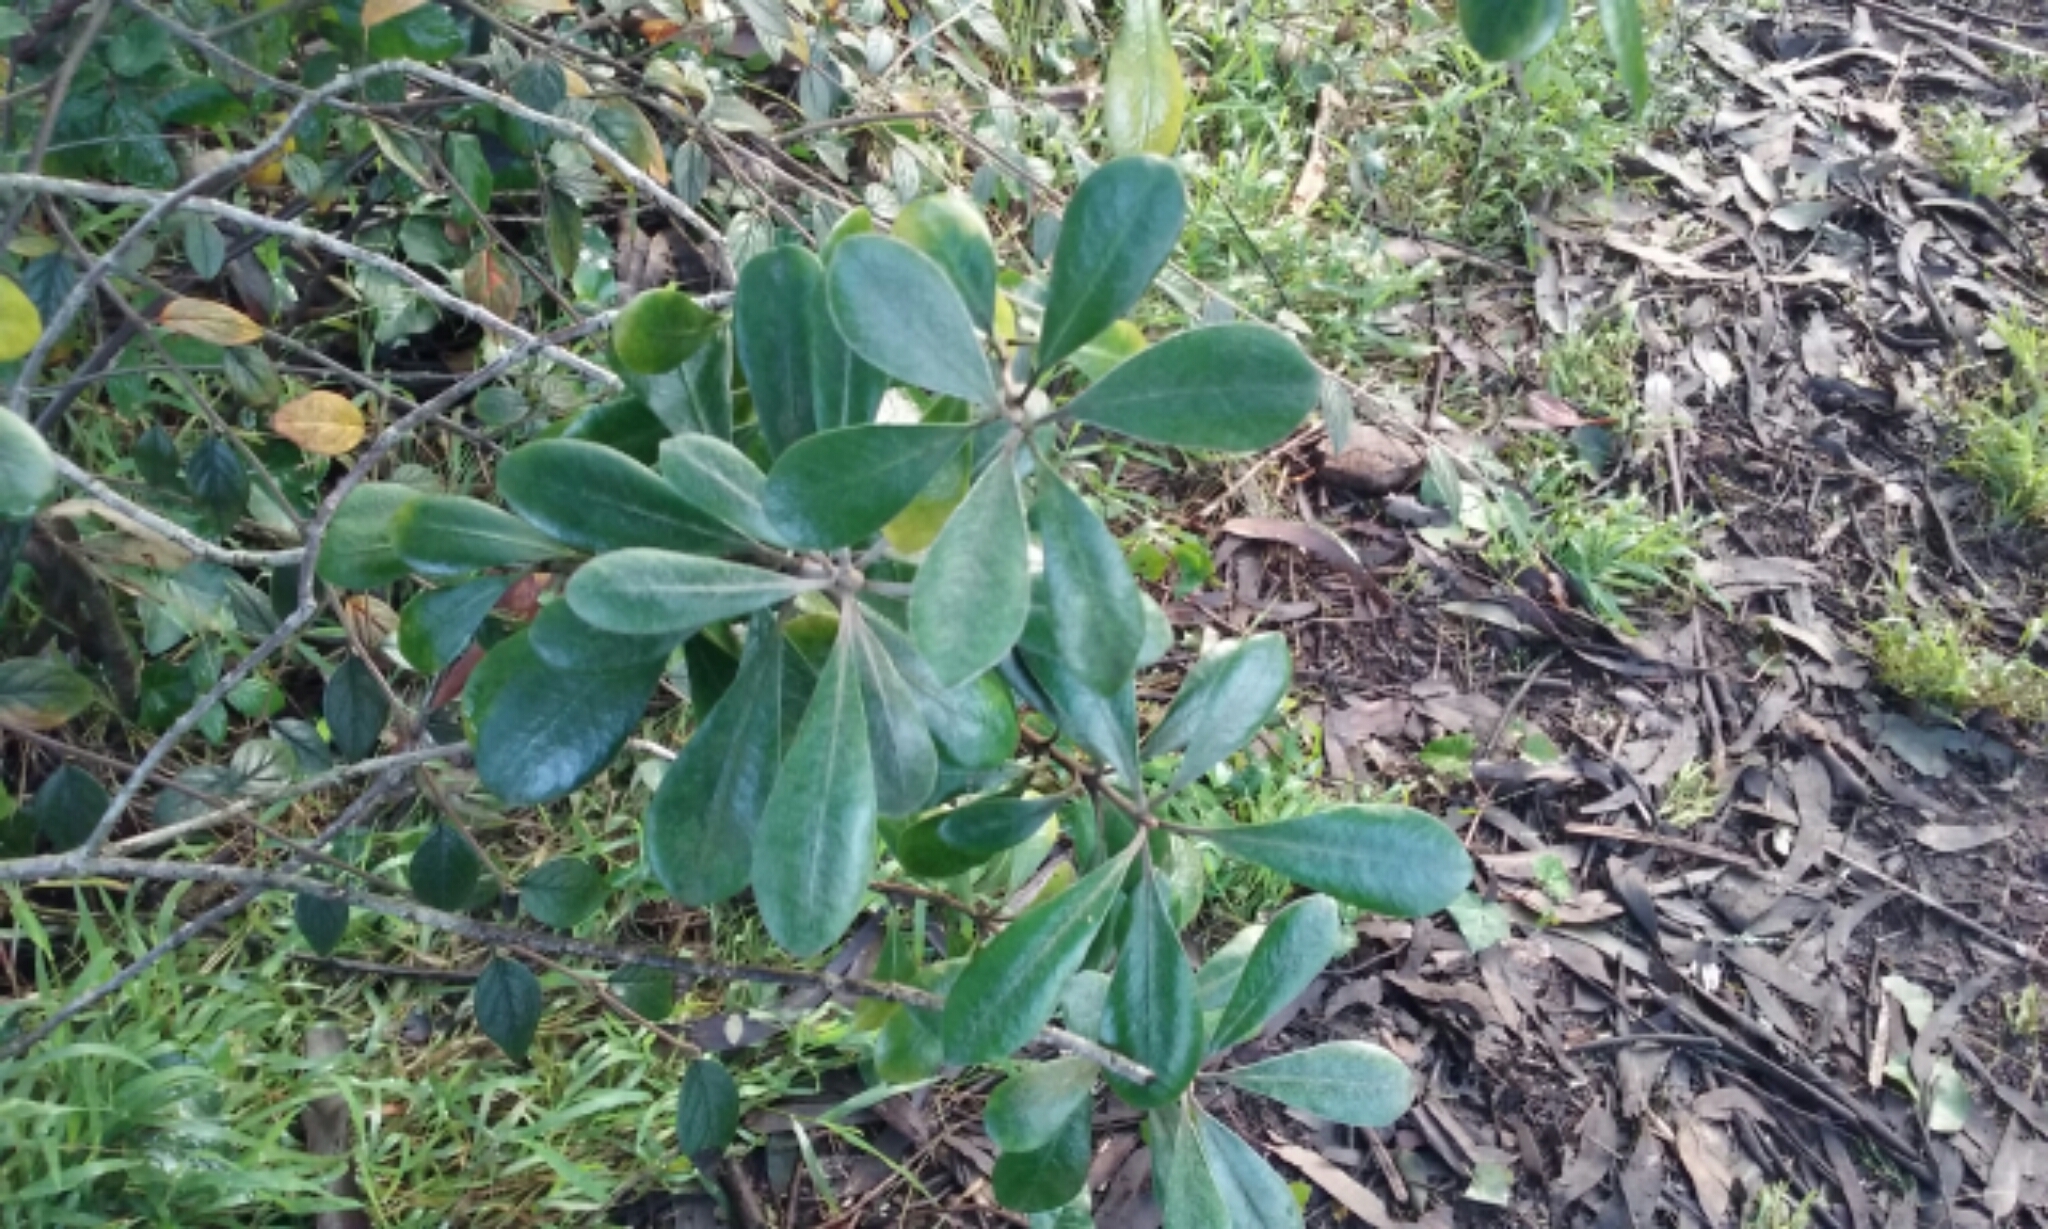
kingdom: Plantae
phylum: Tracheophyta
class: Magnoliopsida
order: Apiales
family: Pittosporaceae
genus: Pittosporum
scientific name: Pittosporum crassifolium
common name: Karo
